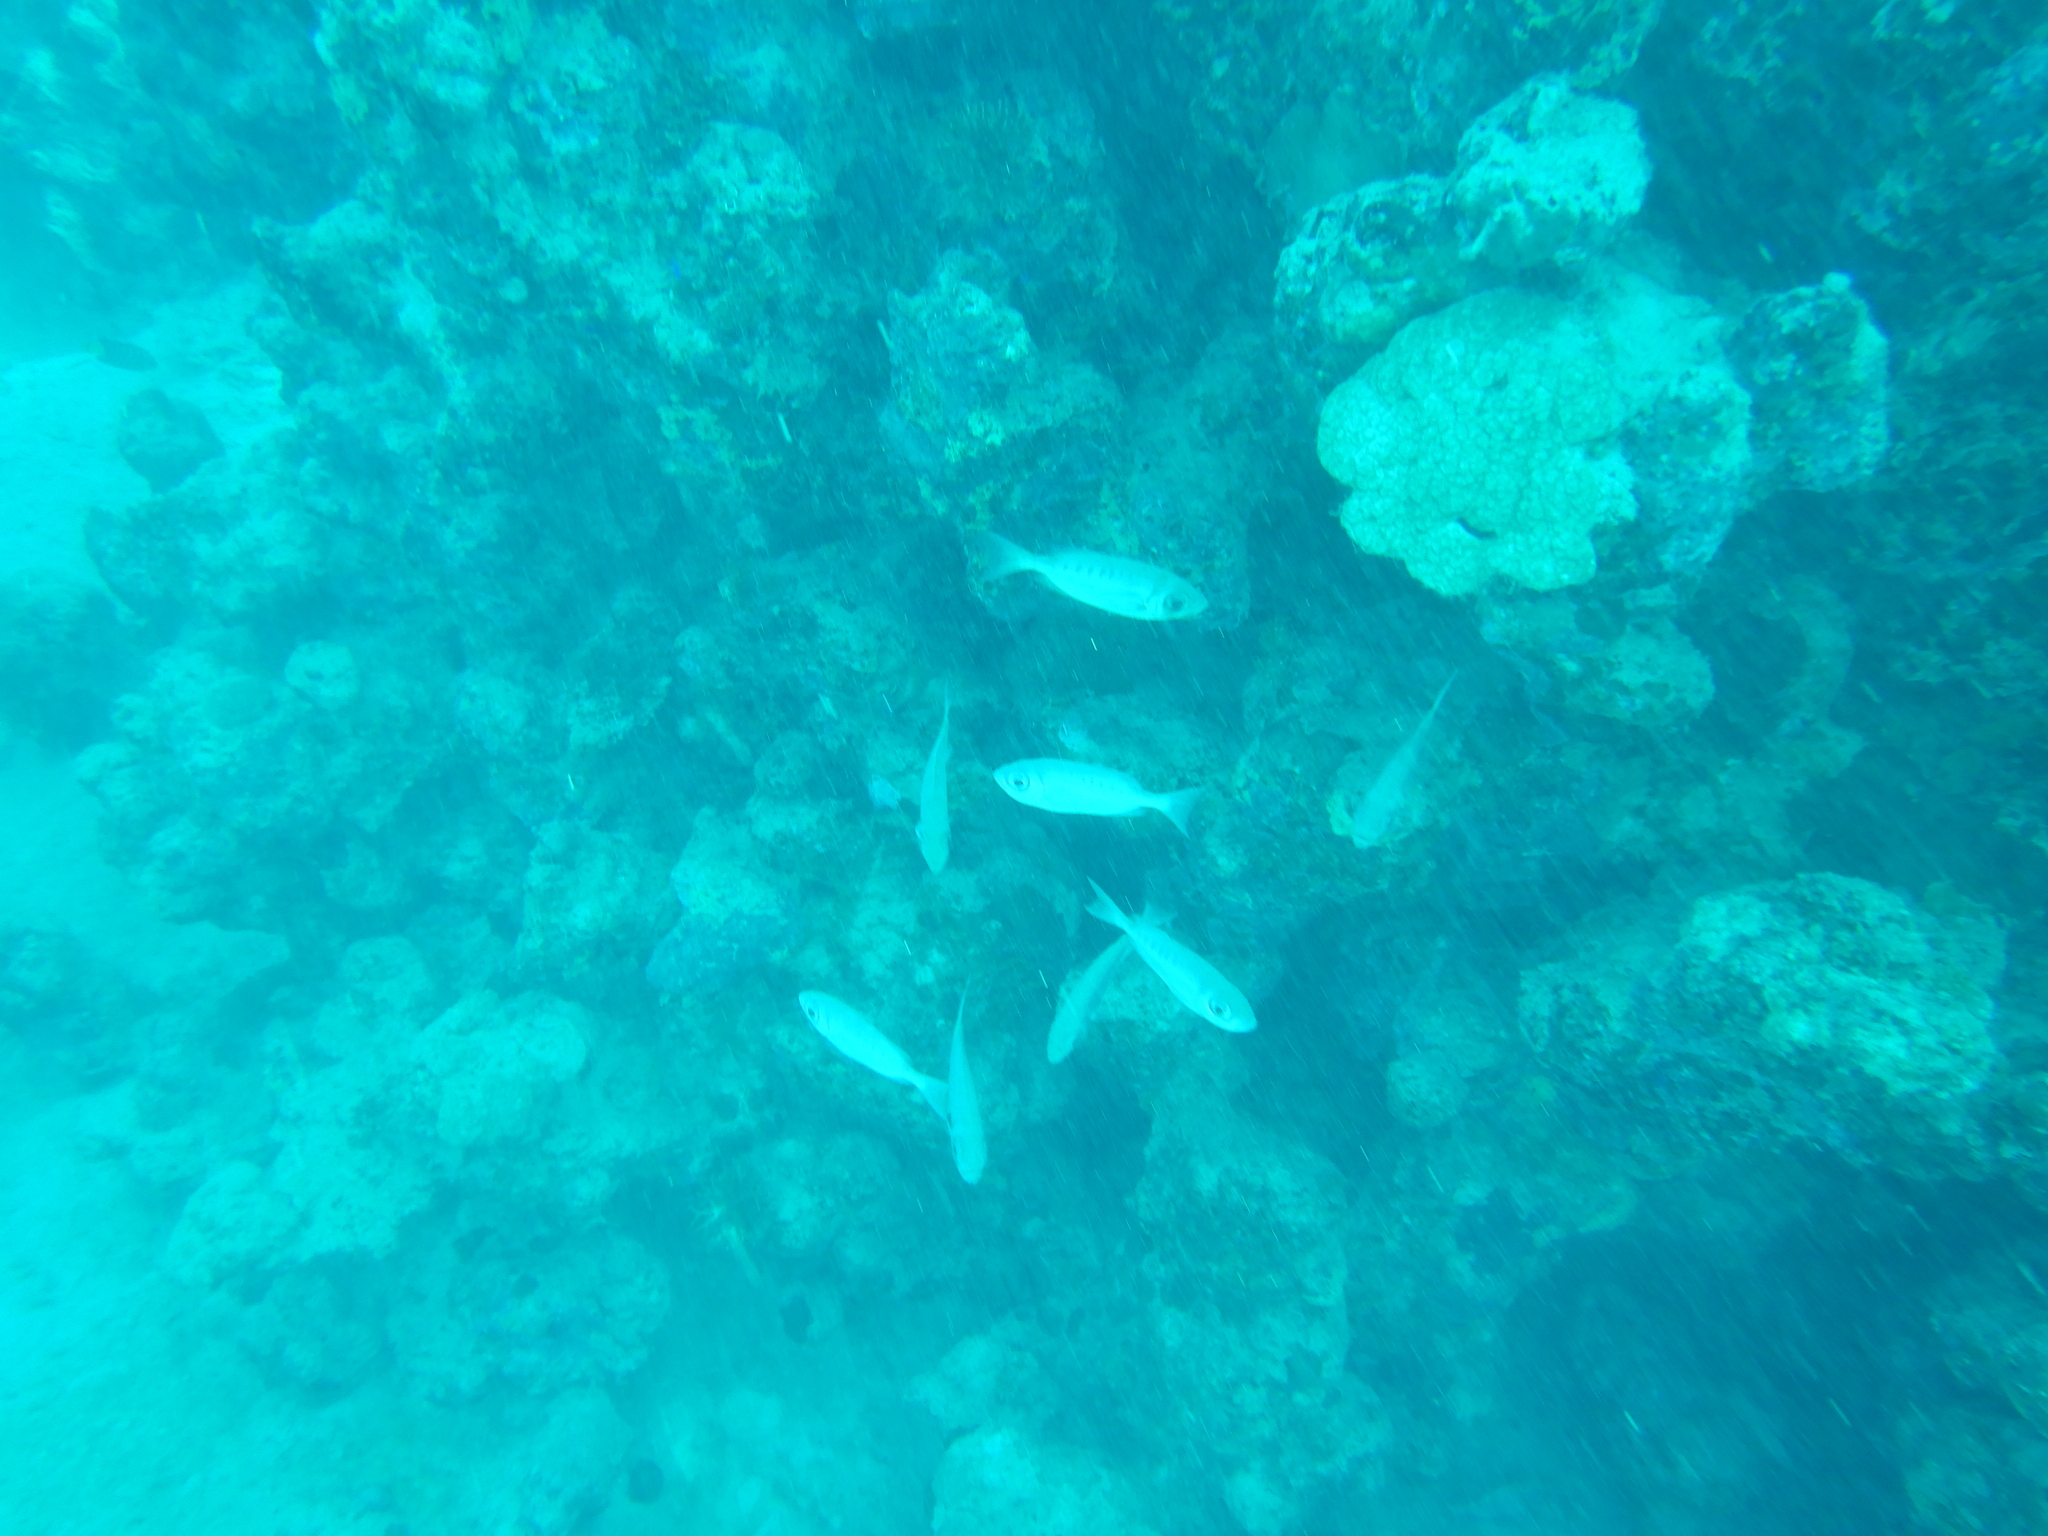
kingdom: Animalia
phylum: Chordata
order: Perciformes
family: Priacanthidae
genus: Priacanthus
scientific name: Priacanthus hamrur
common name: Moontail bullseye
